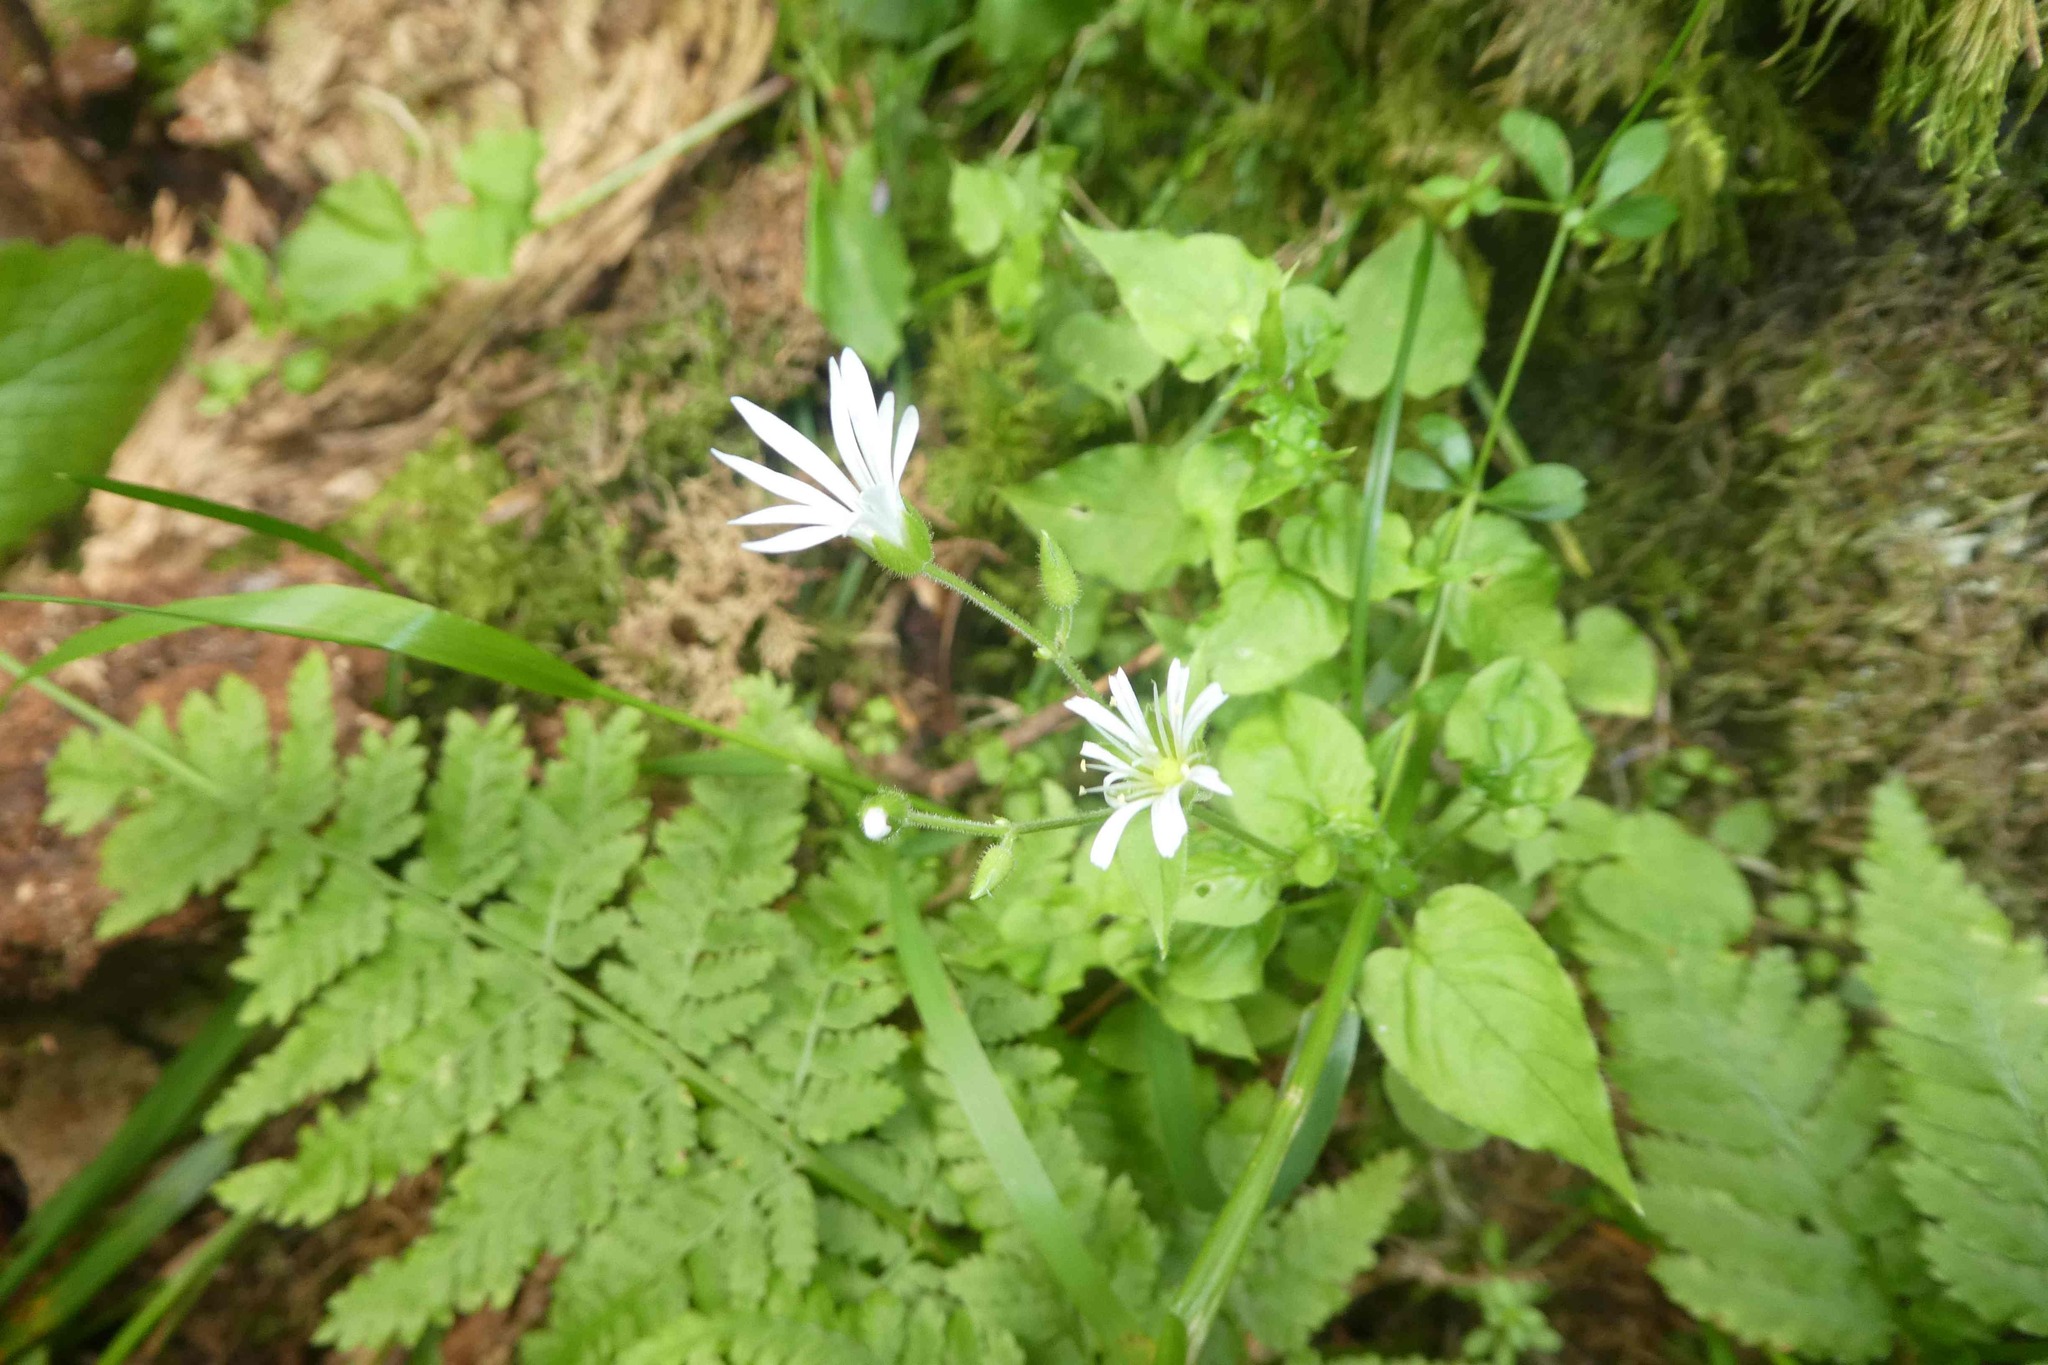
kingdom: Plantae
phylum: Tracheophyta
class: Magnoliopsida
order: Caryophyllales
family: Caryophyllaceae
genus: Stellaria
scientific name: Stellaria glochidisperma
